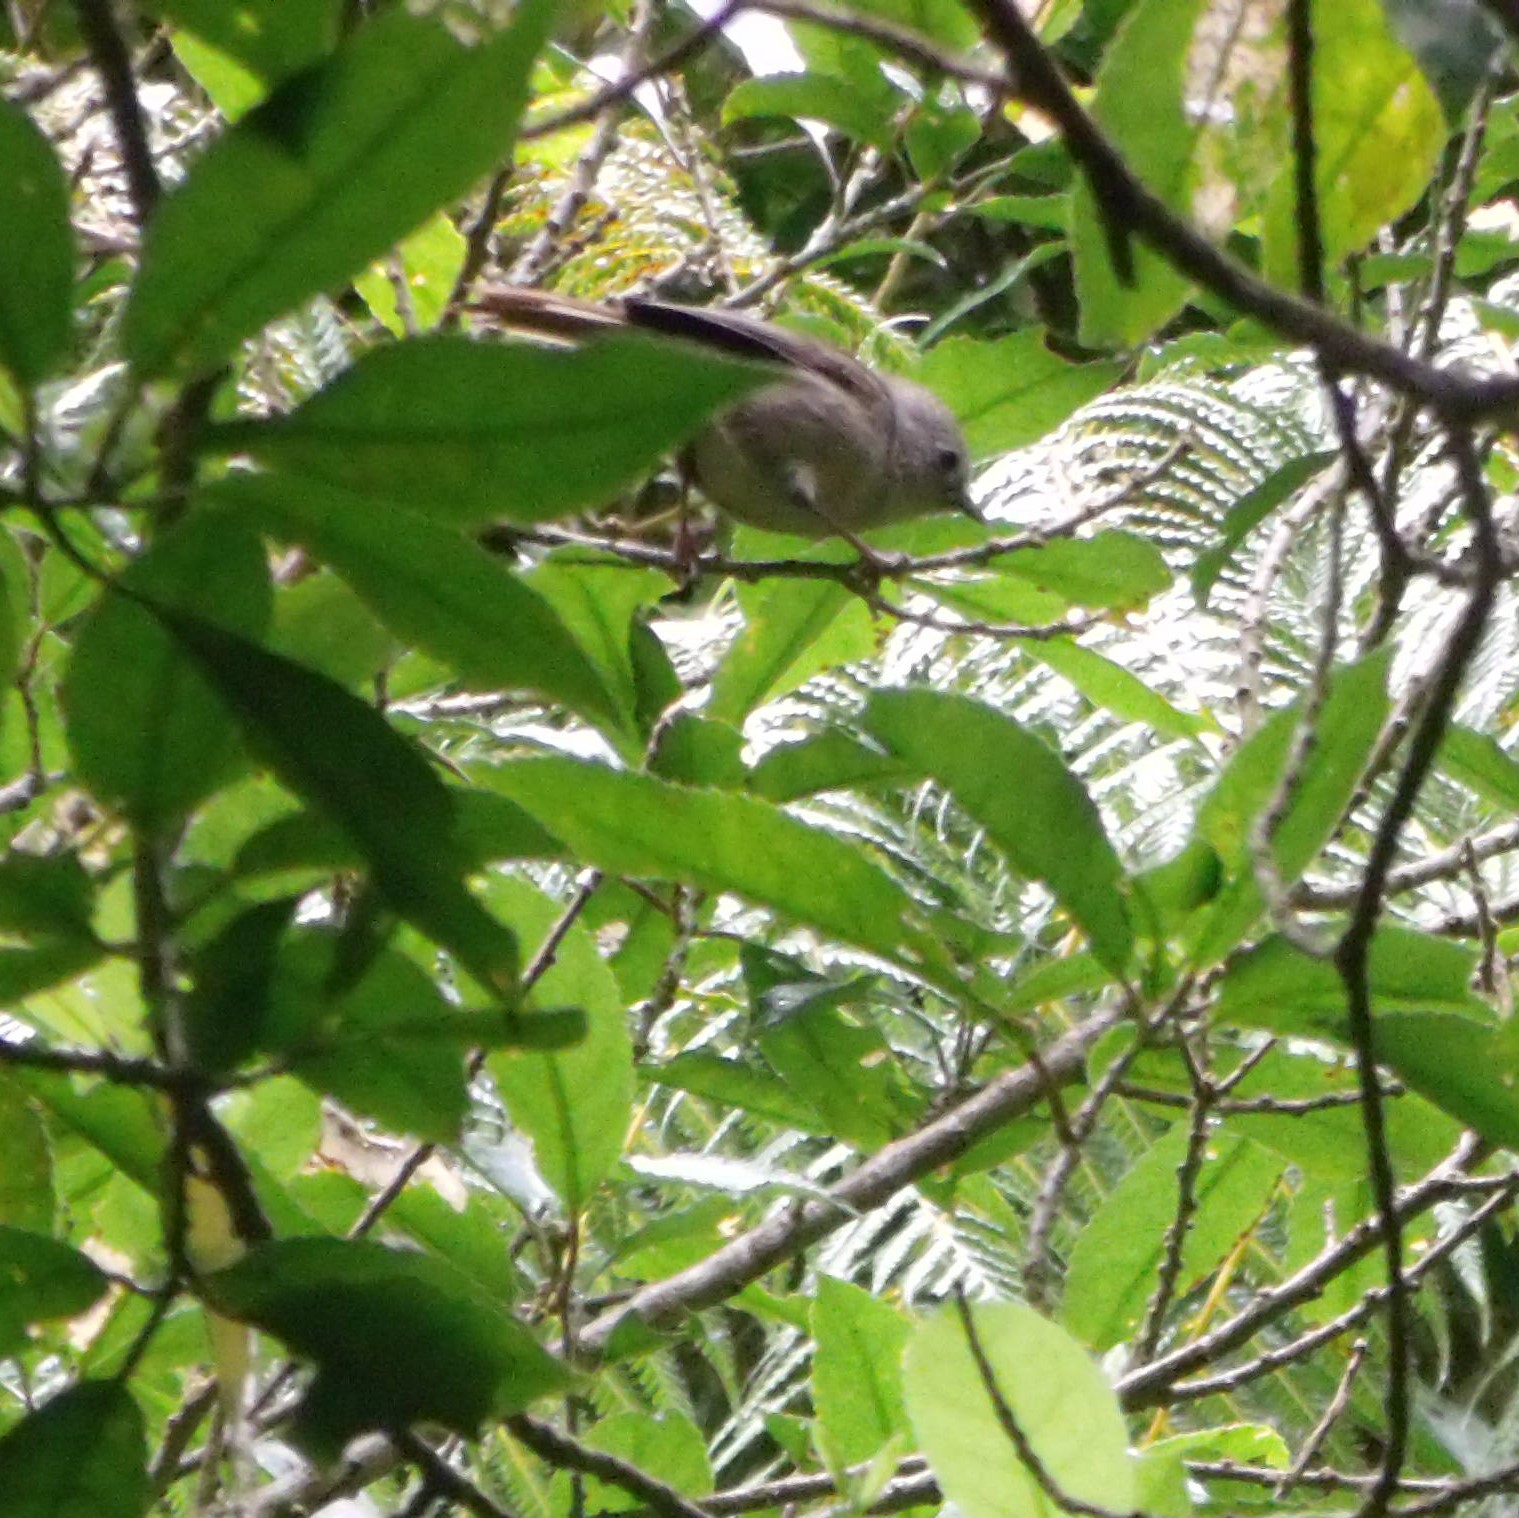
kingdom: Animalia
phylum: Chordata
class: Aves
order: Passeriformes
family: Acanthizidae
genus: Mohoua
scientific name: Mohoua albicilla
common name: Whitehead
